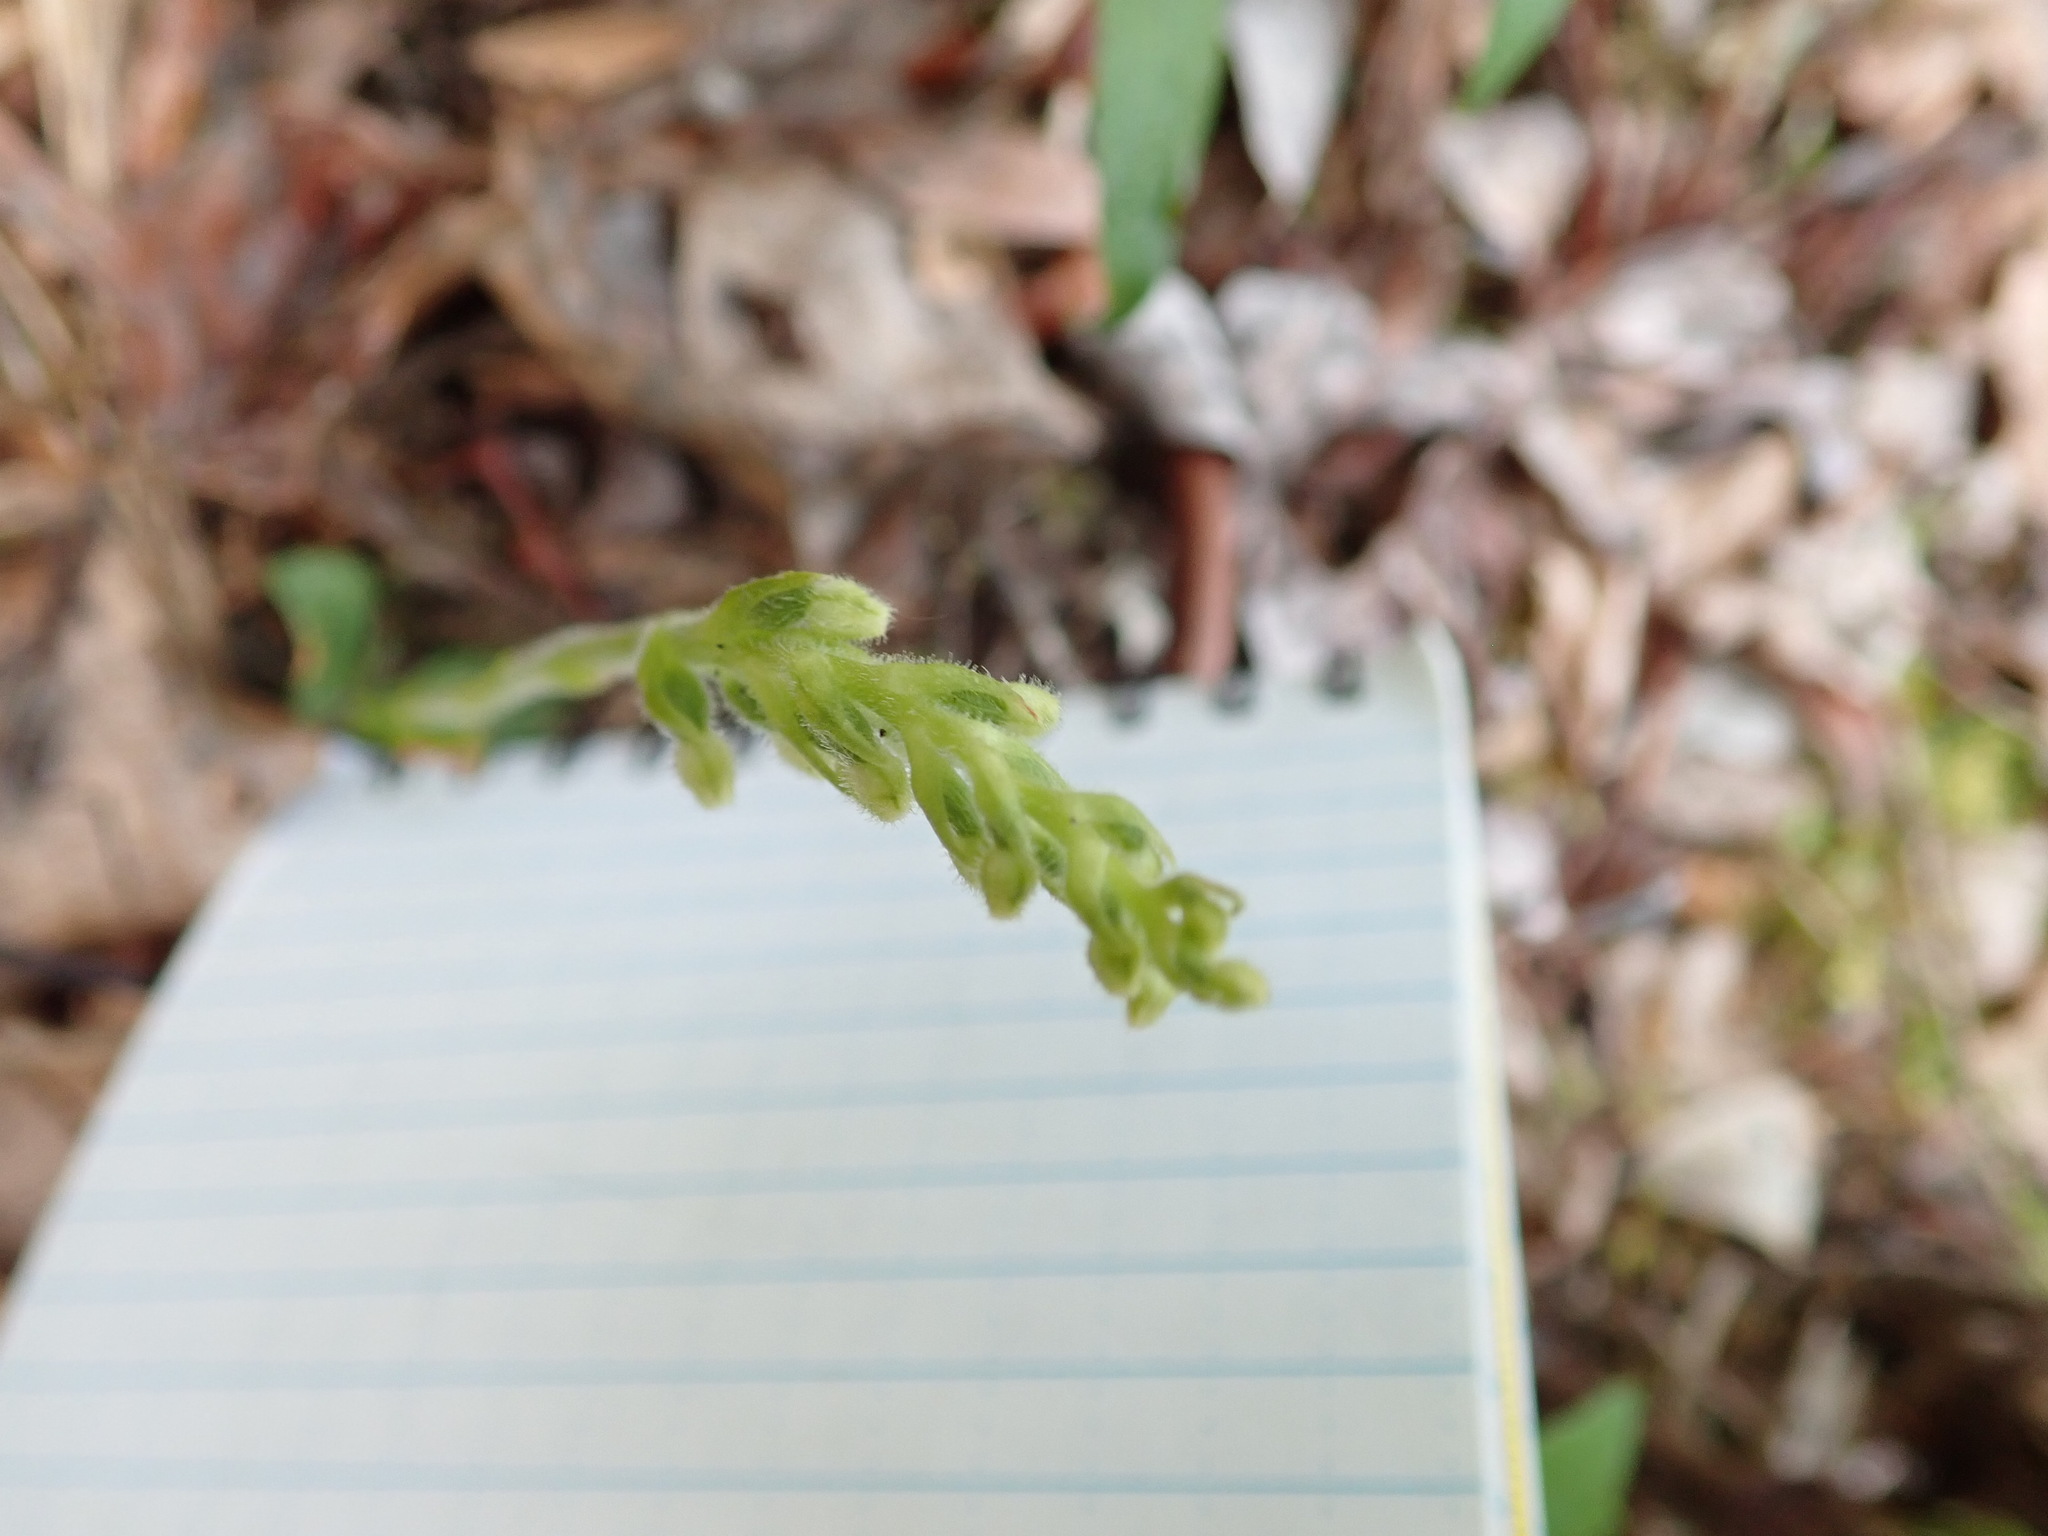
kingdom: Plantae
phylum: Tracheophyta
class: Liliopsida
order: Asparagales
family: Orchidaceae
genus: Goodyera
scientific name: Goodyera repens
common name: Creeping lady's-tresses
